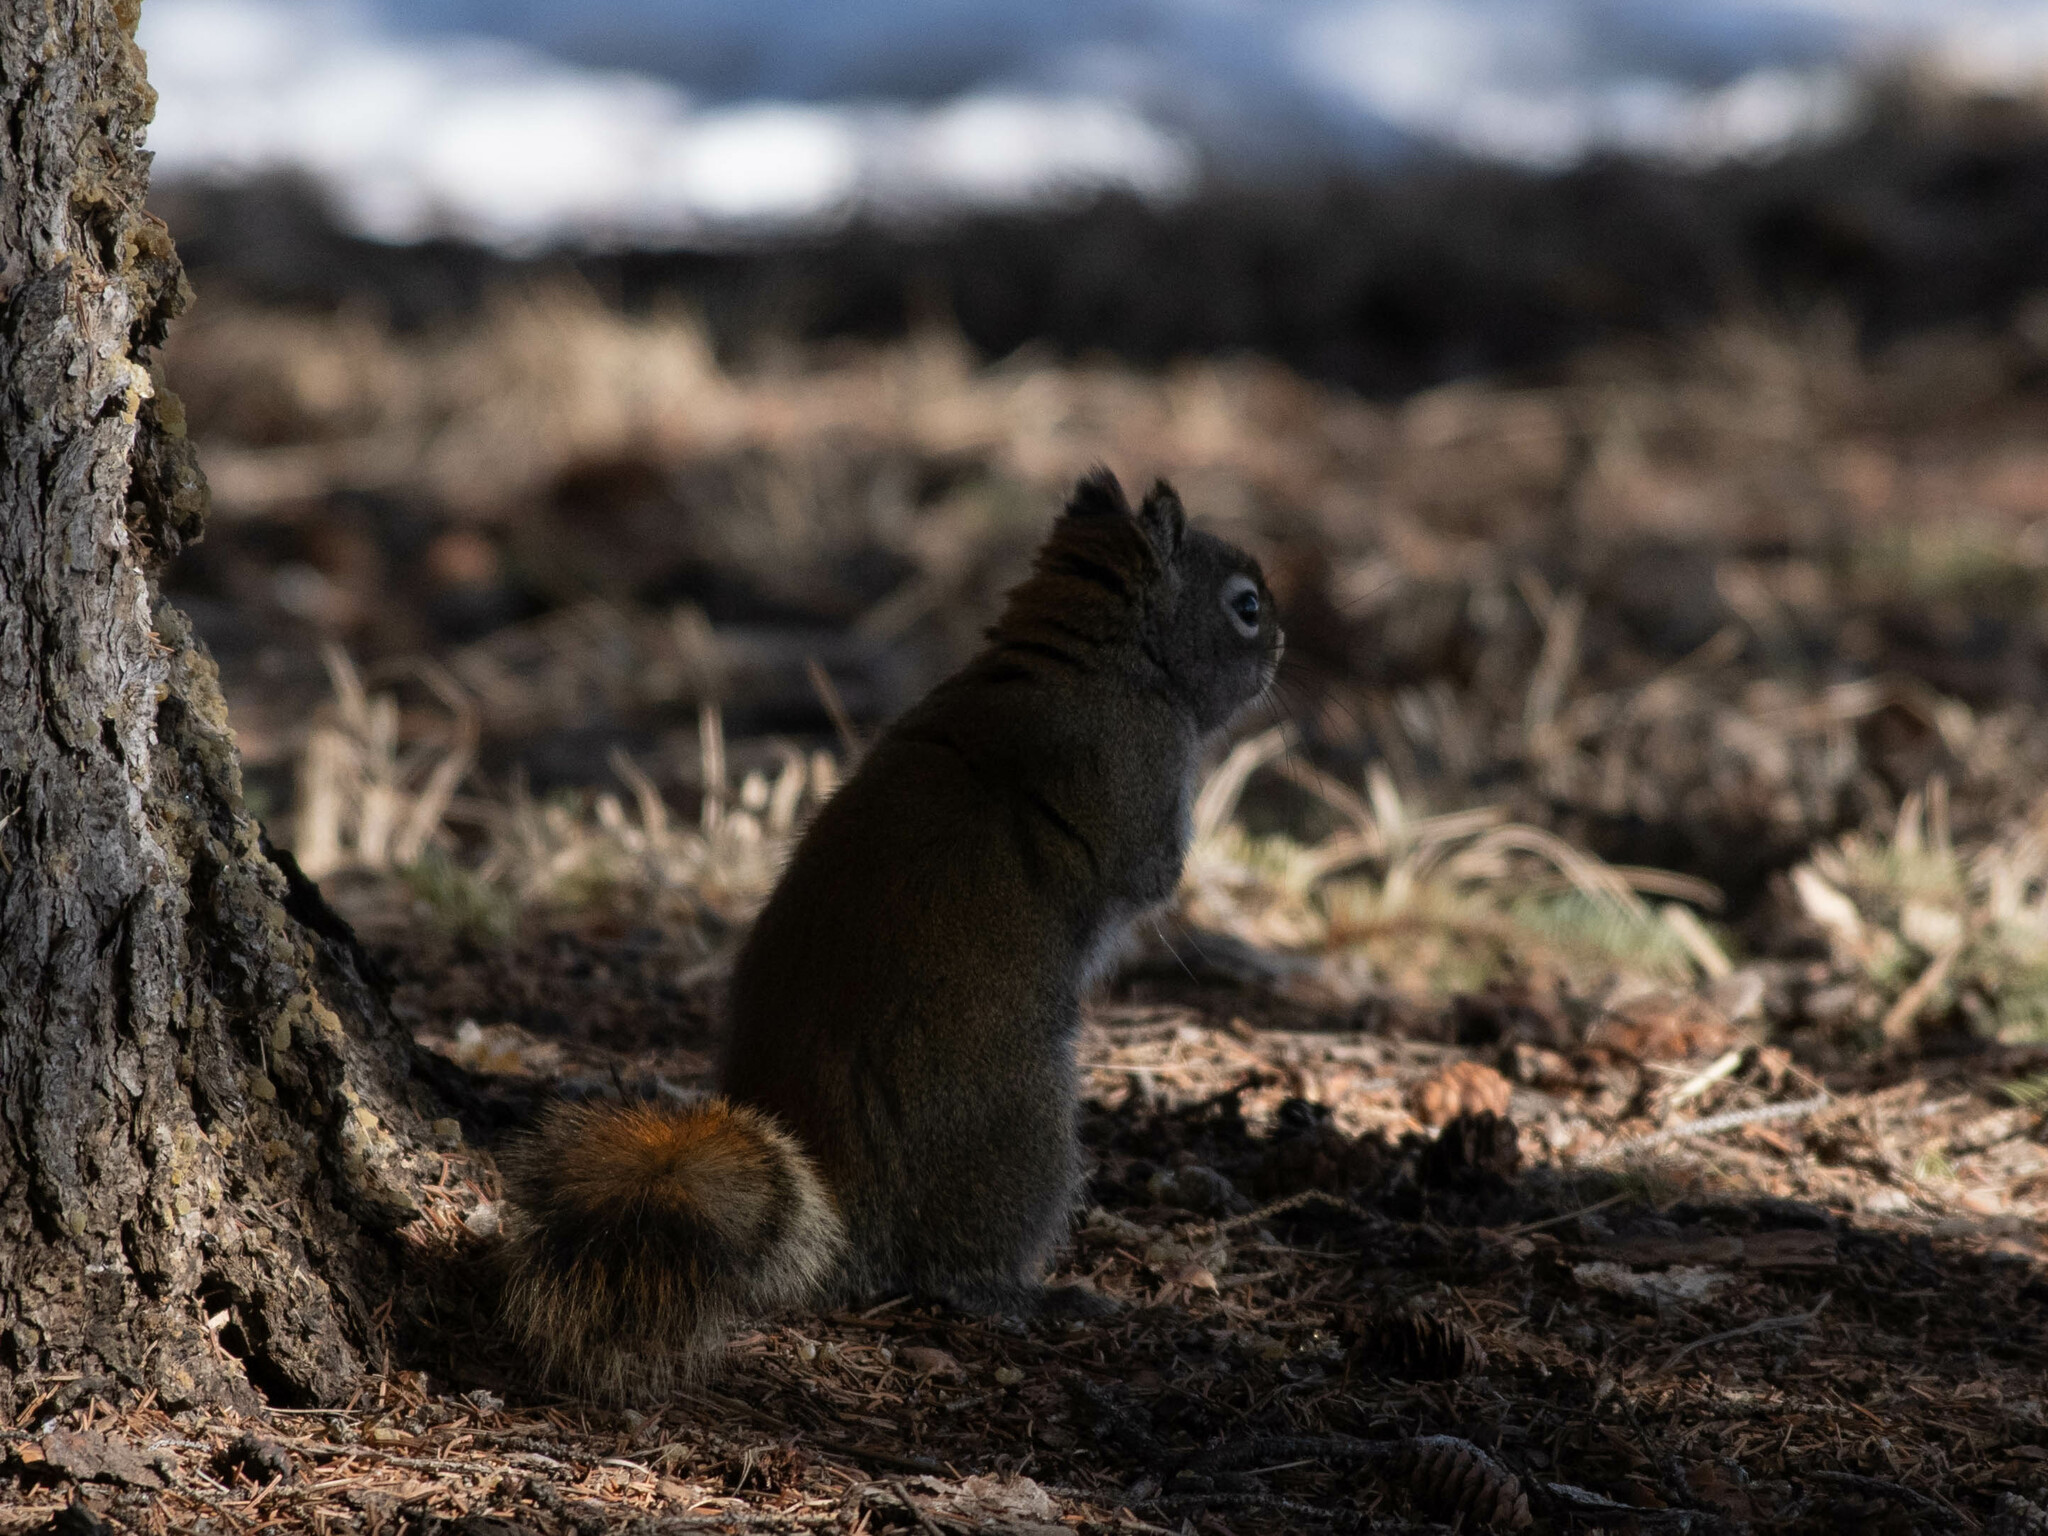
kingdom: Animalia
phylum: Chordata
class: Mammalia
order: Rodentia
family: Sciuridae
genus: Tamiasciurus
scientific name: Tamiasciurus hudsonicus
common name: Red squirrel
